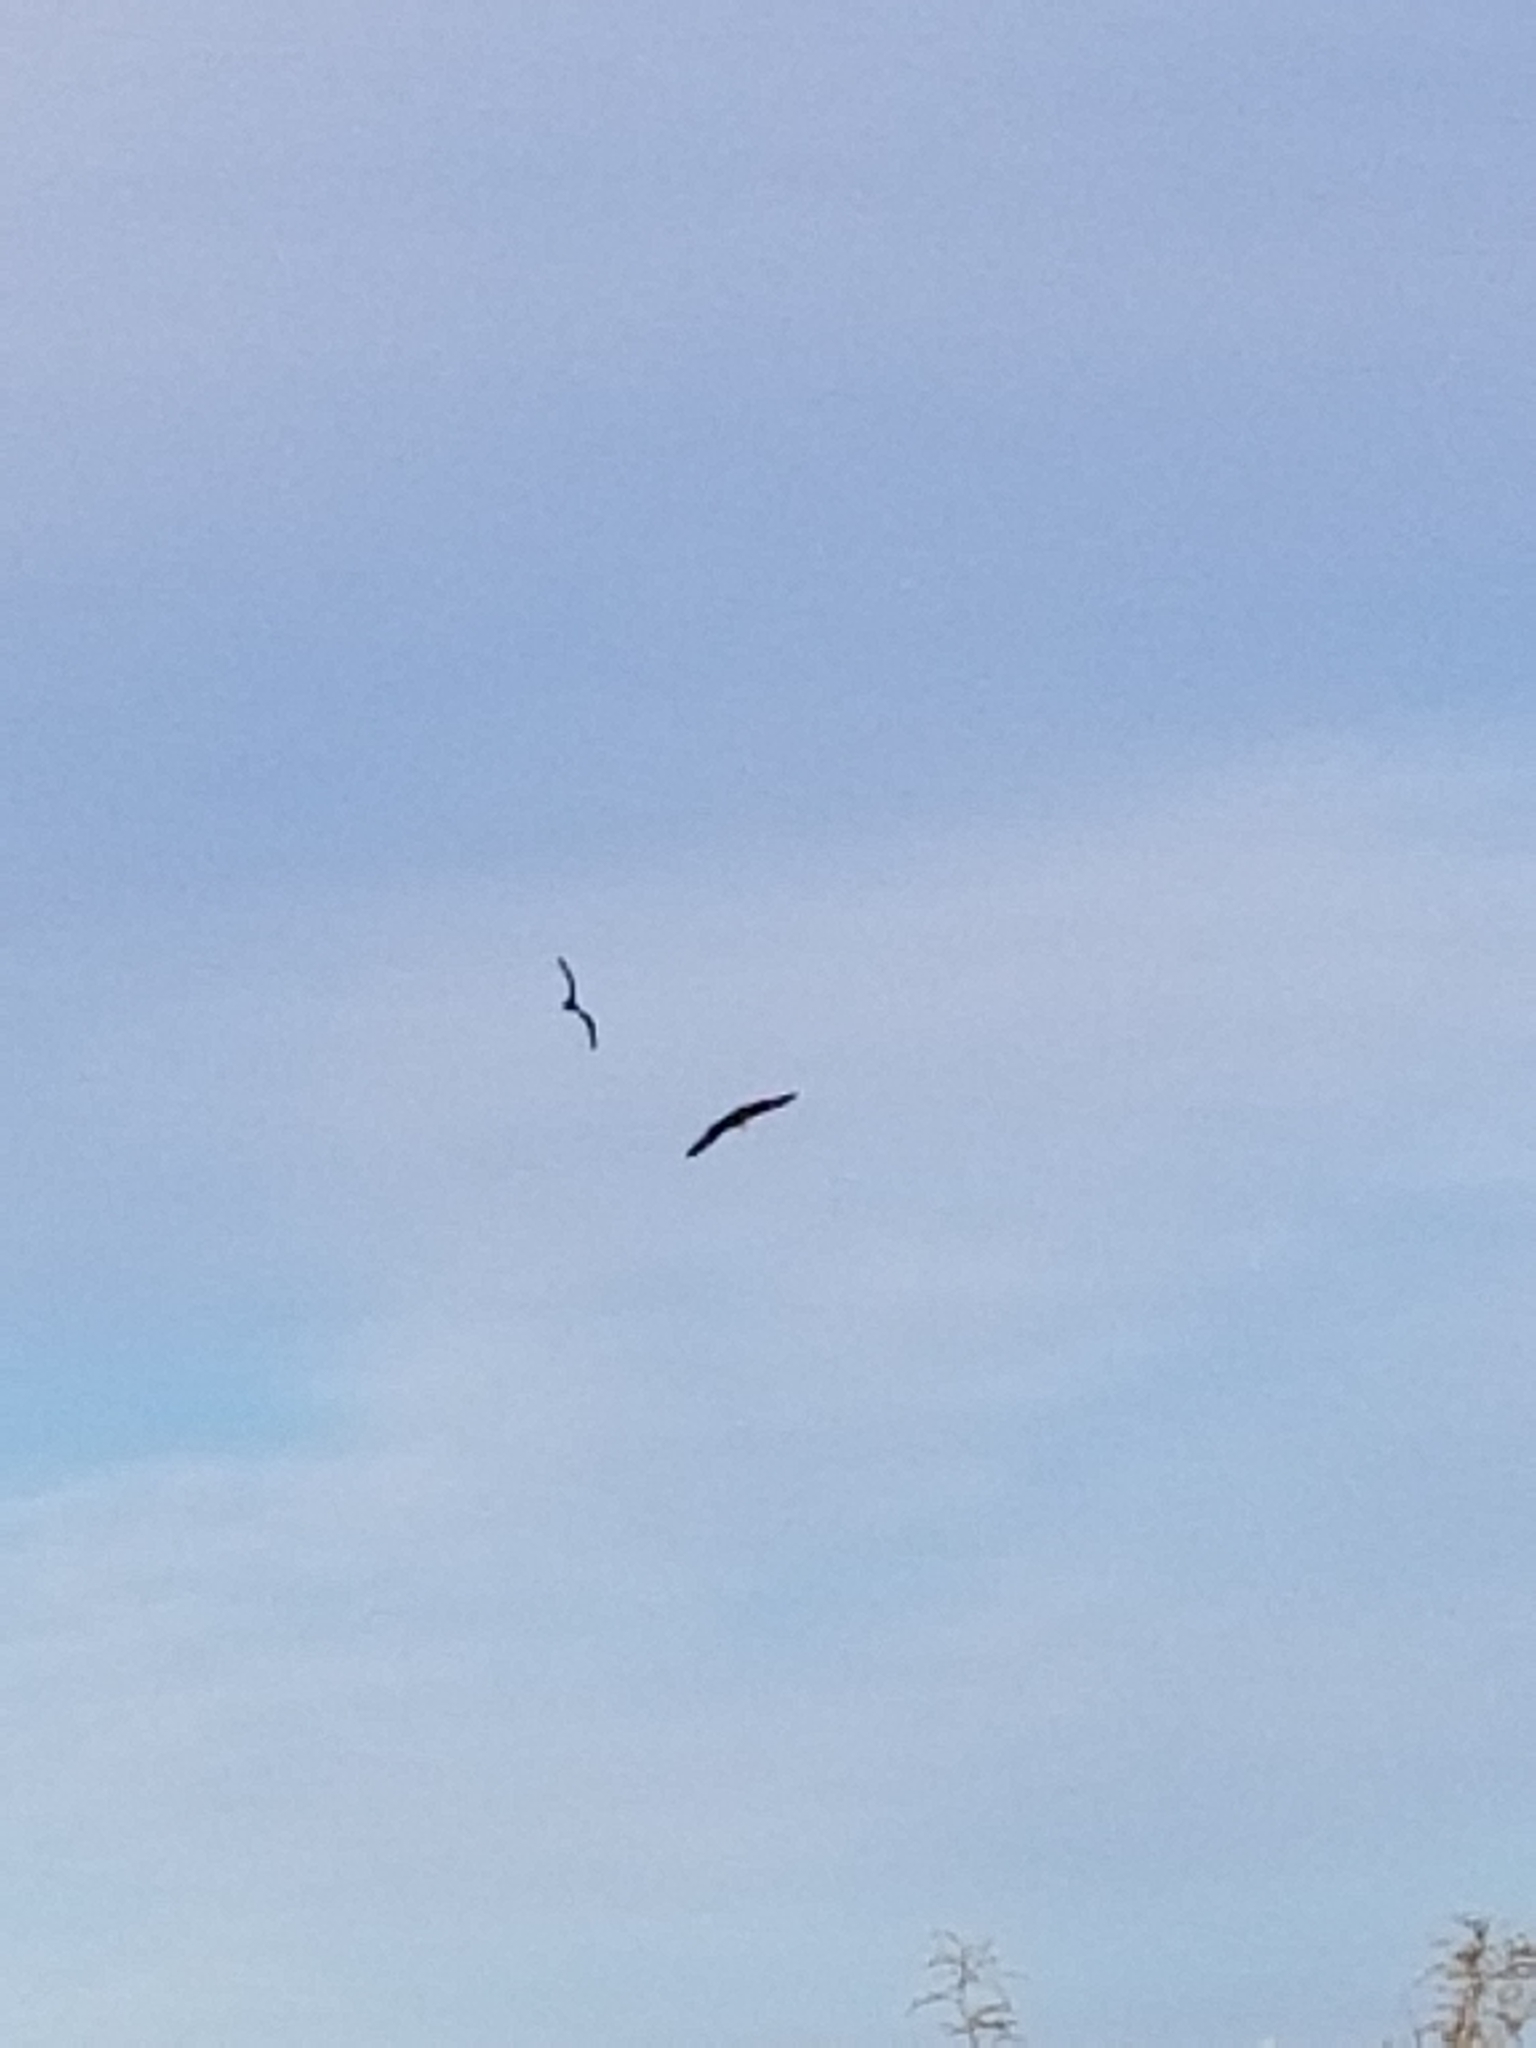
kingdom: Animalia
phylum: Chordata
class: Aves
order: Accipitriformes
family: Pandionidae
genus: Pandion
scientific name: Pandion haliaetus
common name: Osprey
